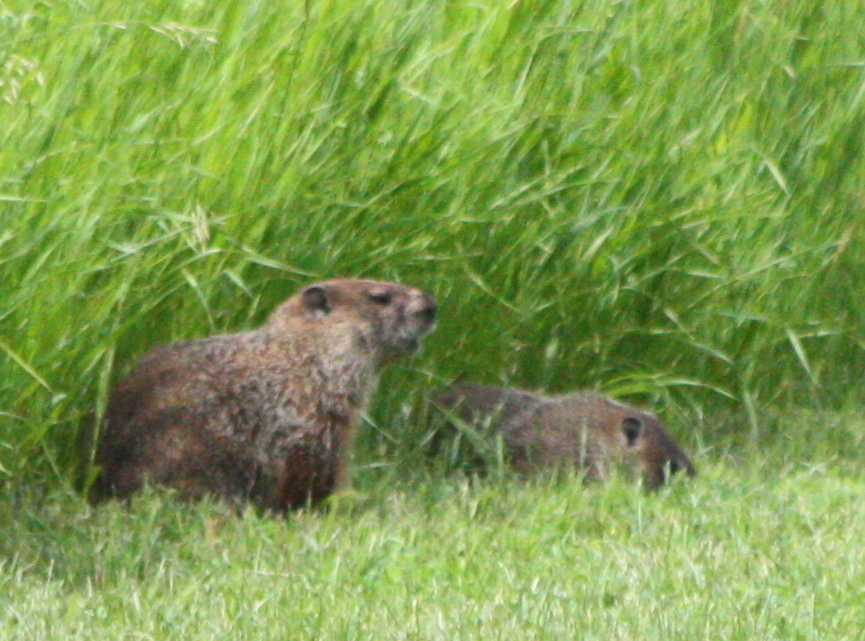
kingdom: Animalia
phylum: Chordata
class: Mammalia
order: Rodentia
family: Sciuridae
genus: Marmota
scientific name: Marmota monax
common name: Groundhog
